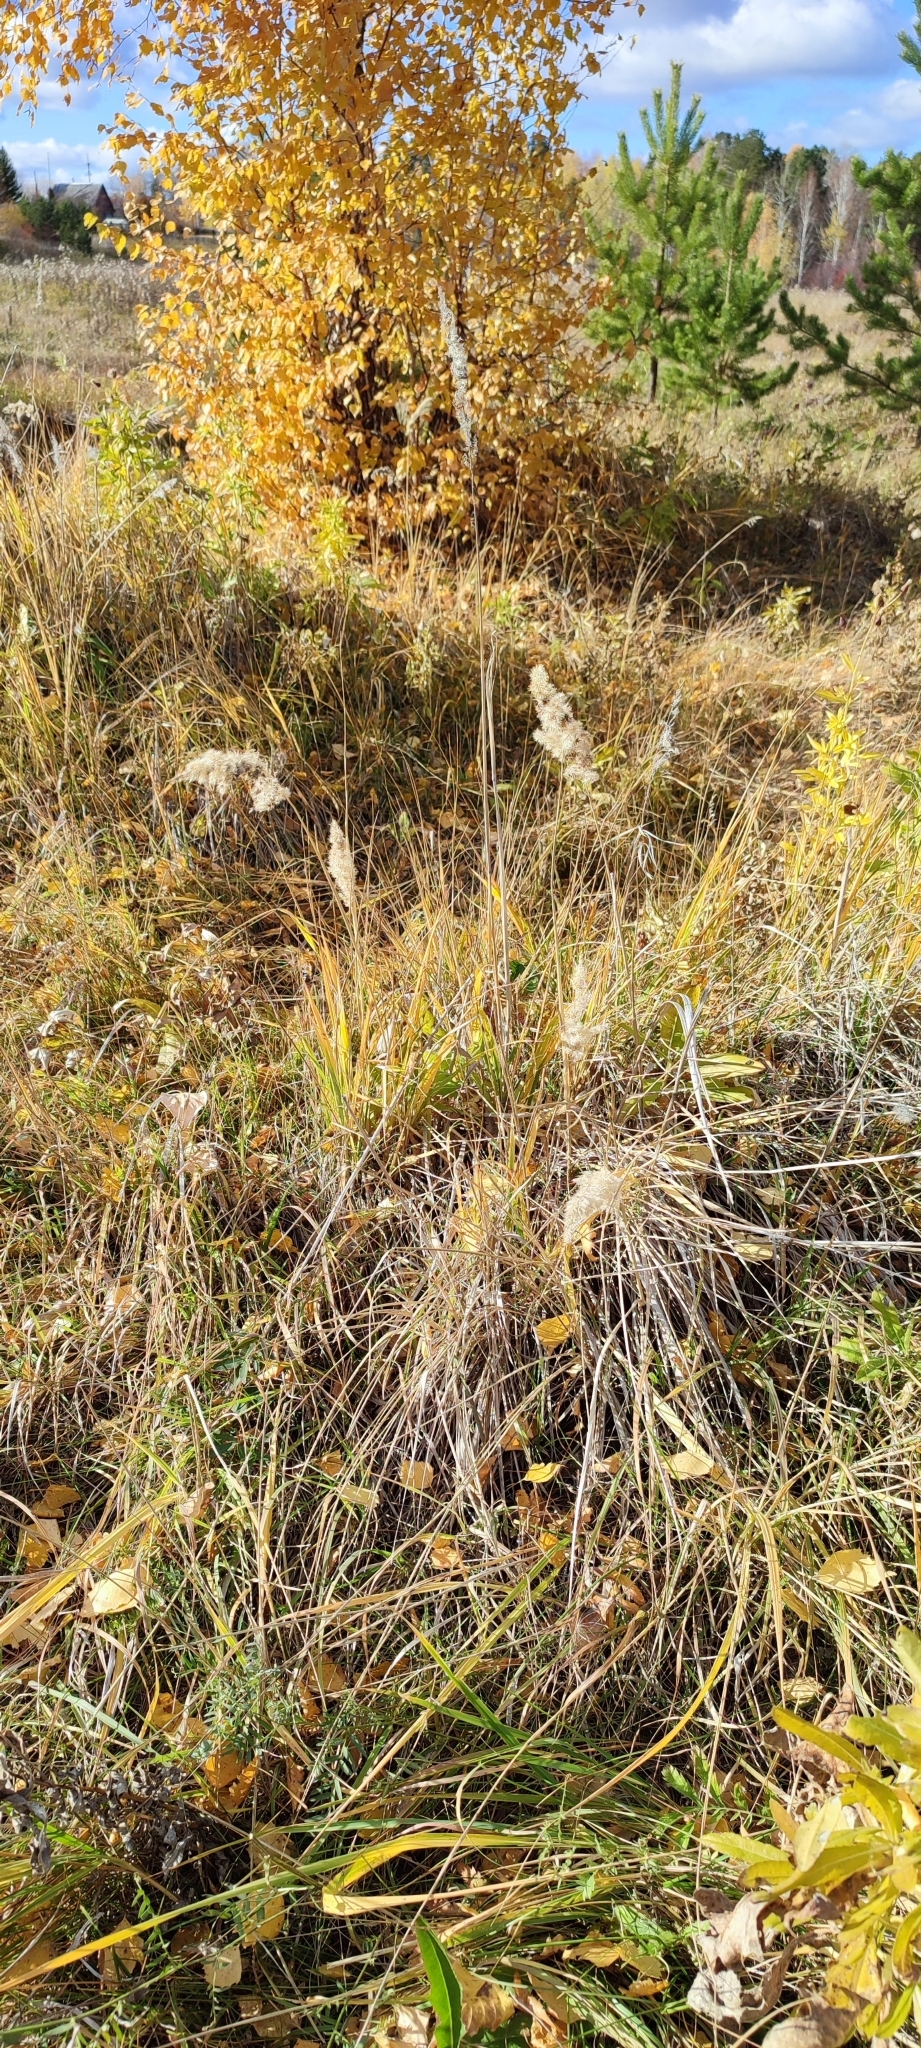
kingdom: Plantae
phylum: Tracheophyta
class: Liliopsida
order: Poales
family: Poaceae
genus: Calamagrostis
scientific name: Calamagrostis epigejos
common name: Wood small-reed
